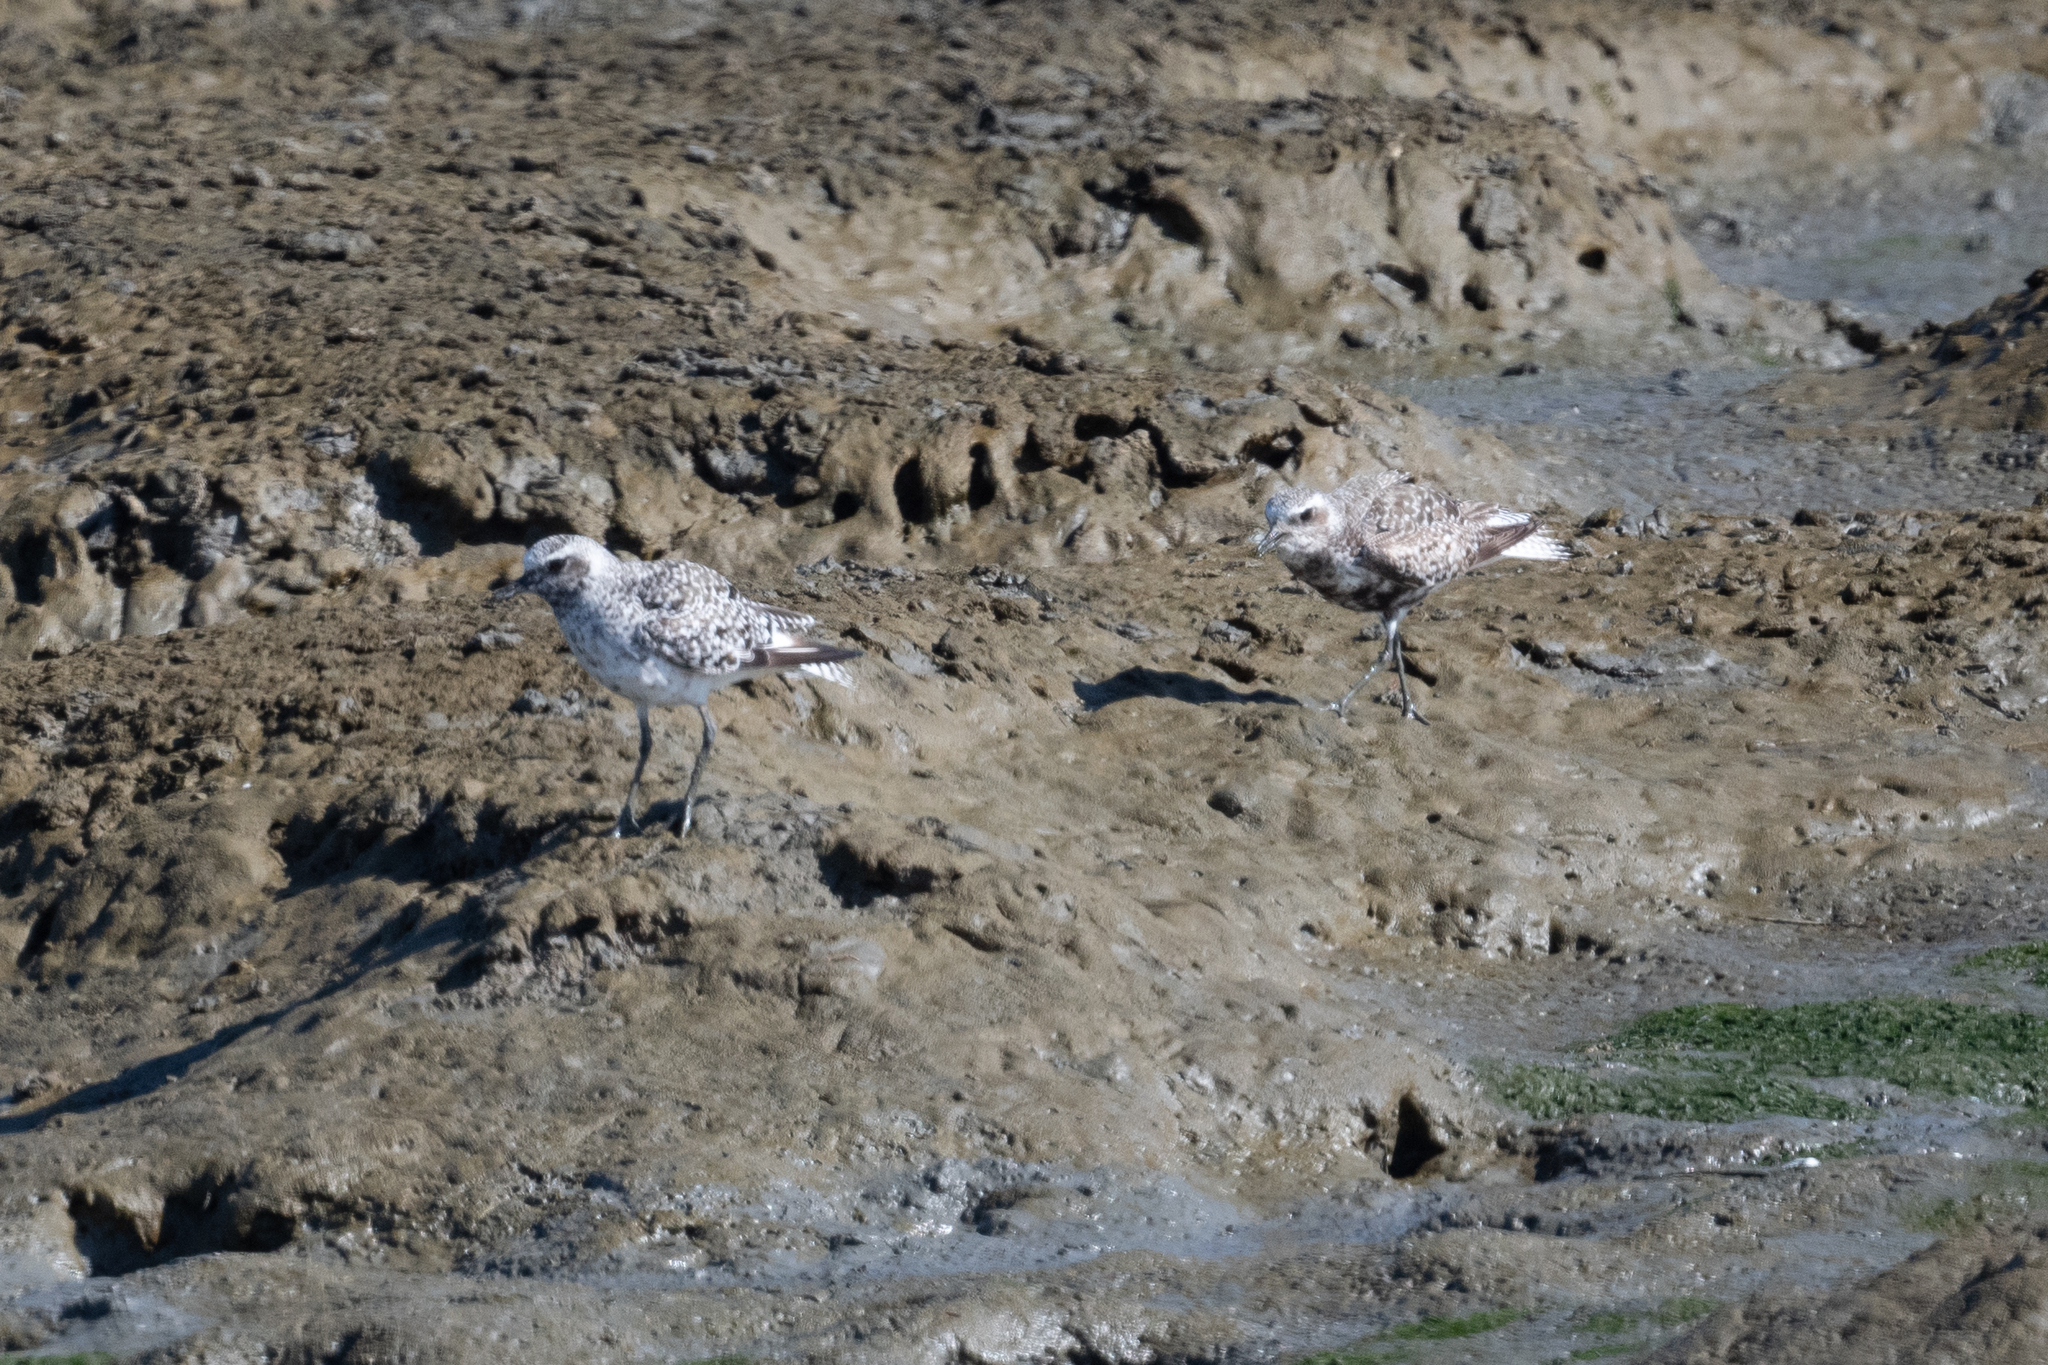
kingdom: Animalia
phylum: Chordata
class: Aves
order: Charadriiformes
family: Charadriidae
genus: Pluvialis
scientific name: Pluvialis squatarola
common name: Grey plover
